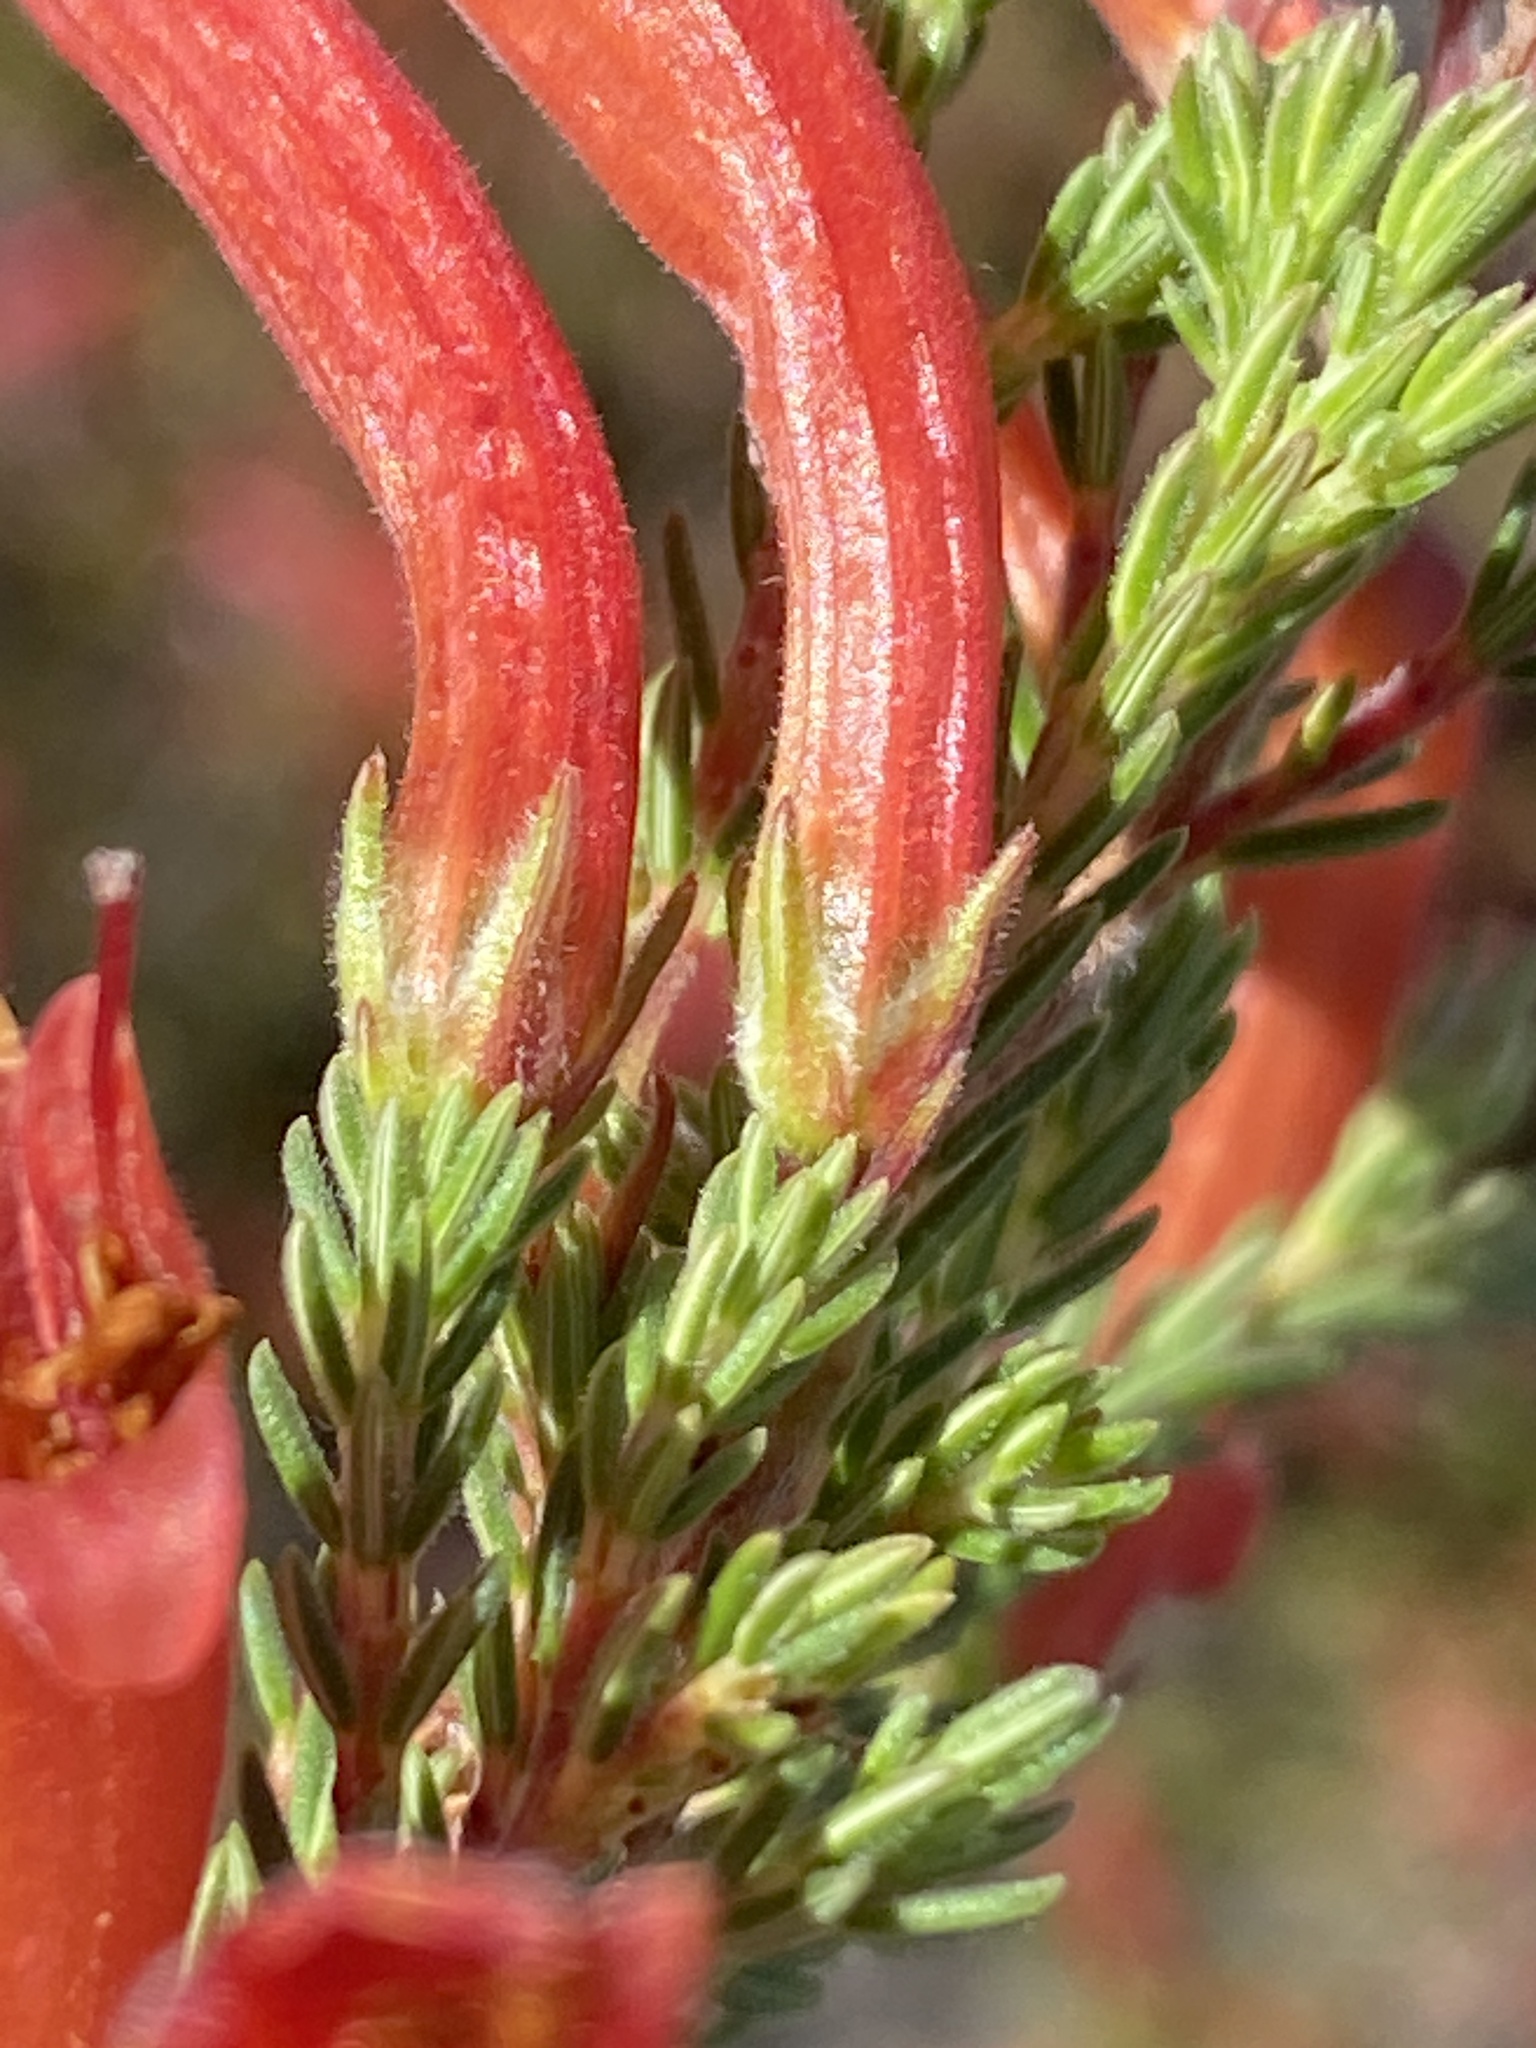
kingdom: Plantae
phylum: Tracheophyta
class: Magnoliopsida
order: Ericales
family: Ericaceae
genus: Erica
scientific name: Erica curviflora
